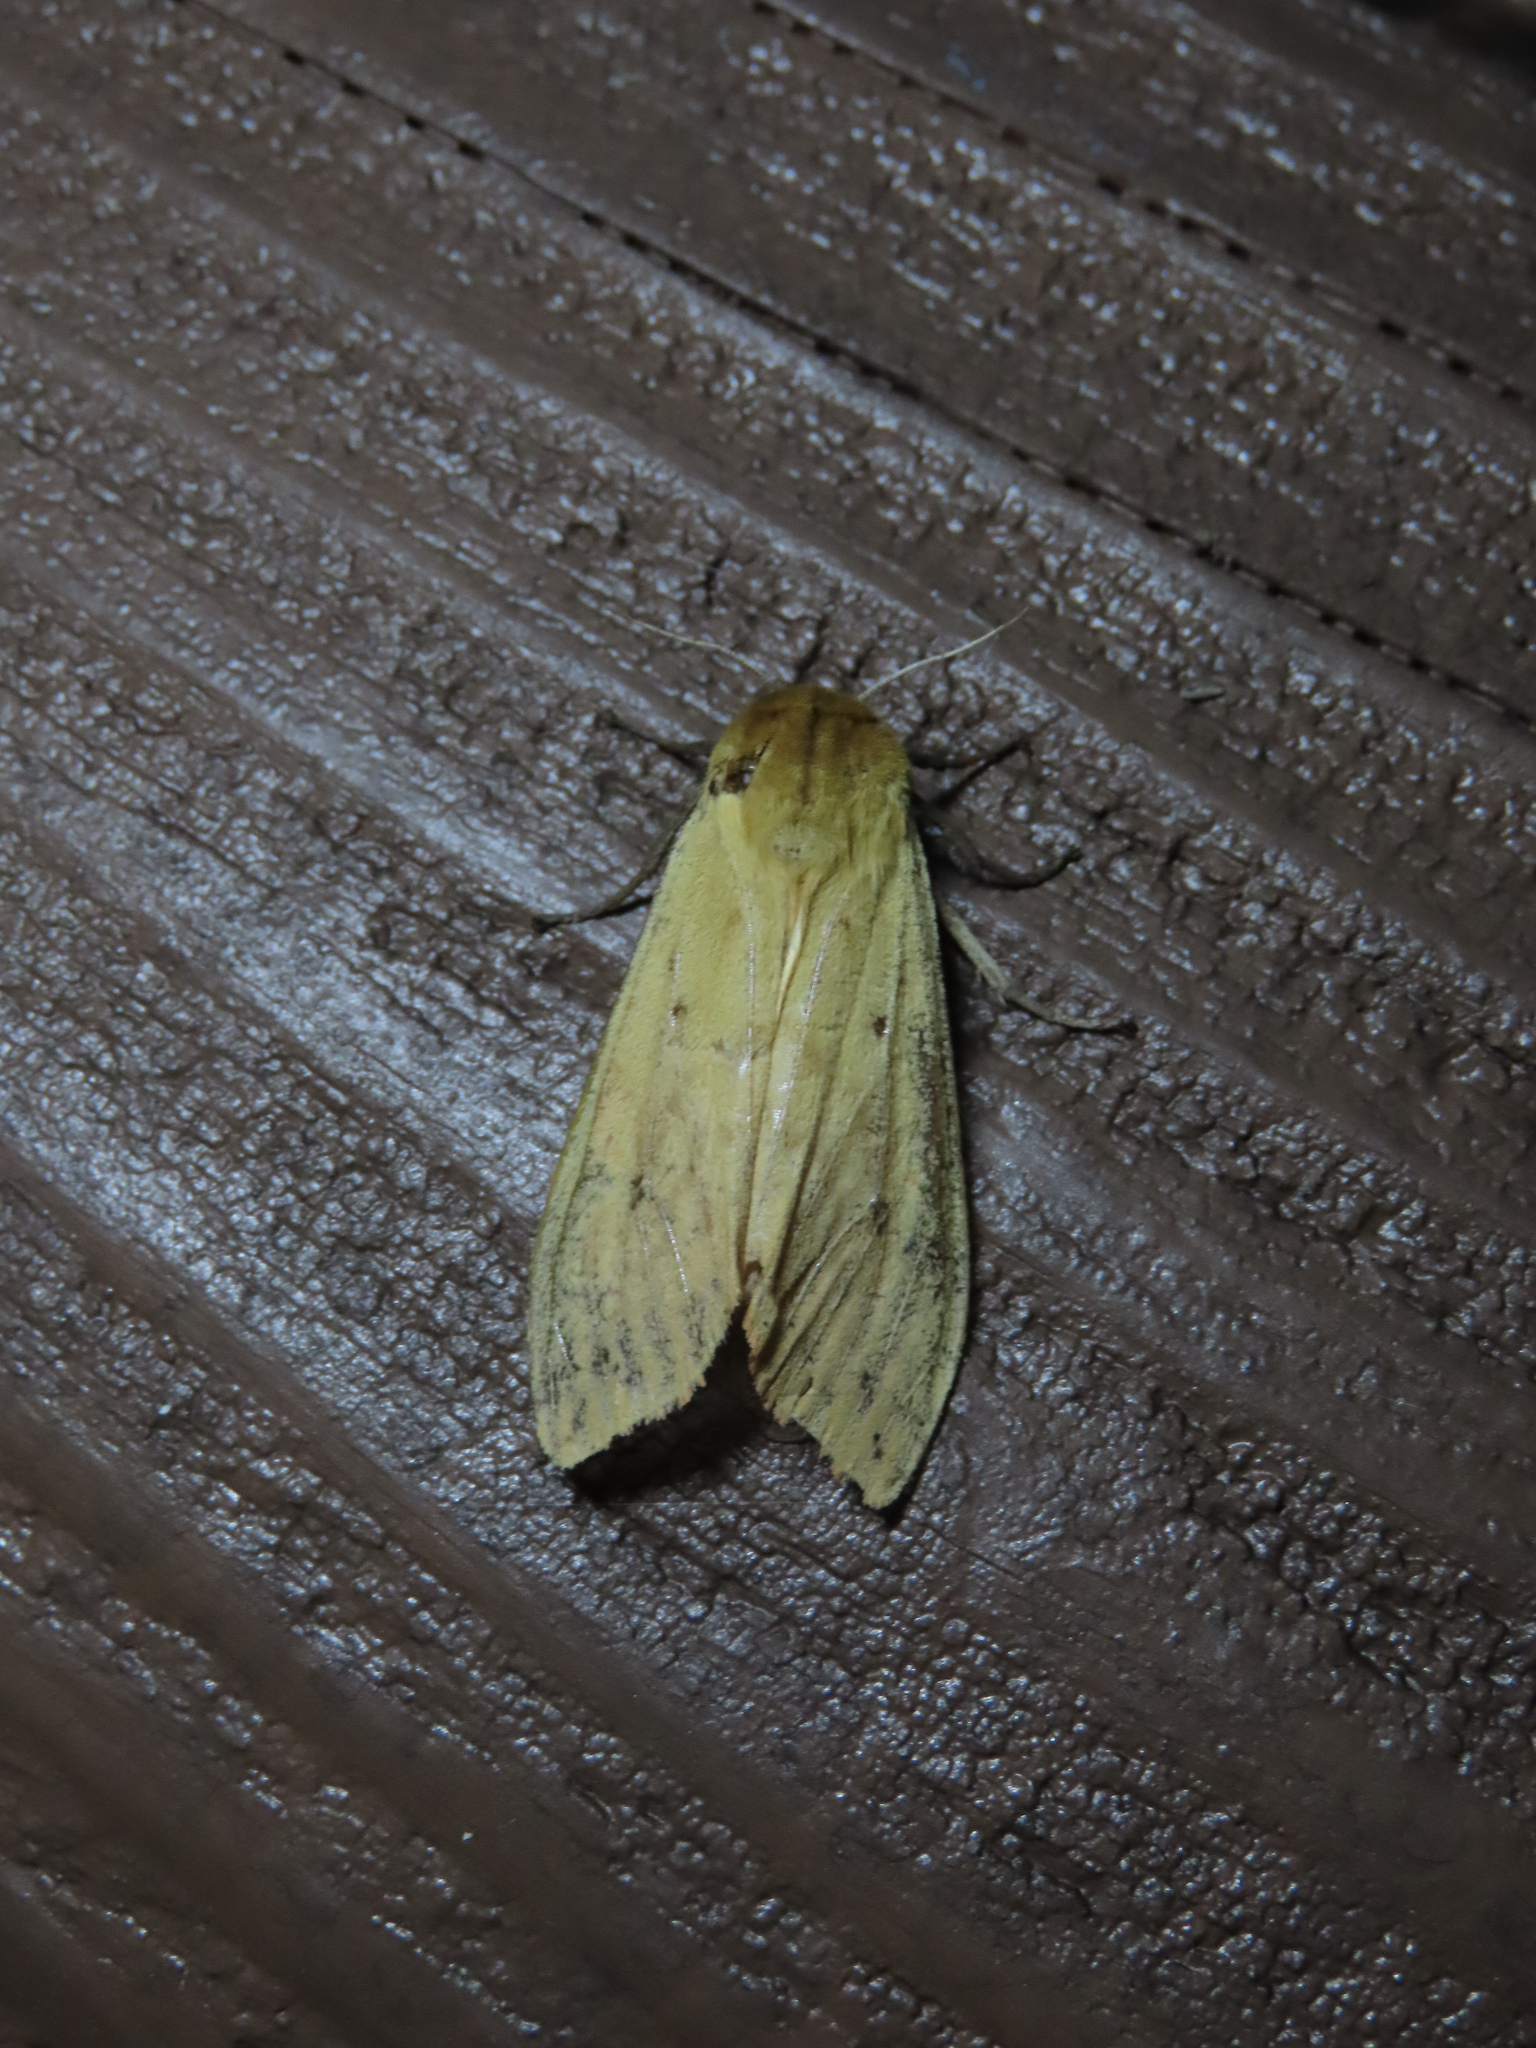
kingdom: Animalia
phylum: Arthropoda
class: Insecta
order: Lepidoptera
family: Erebidae
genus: Pyrrharctia
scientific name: Pyrrharctia isabella
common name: Isabella tiger moth
